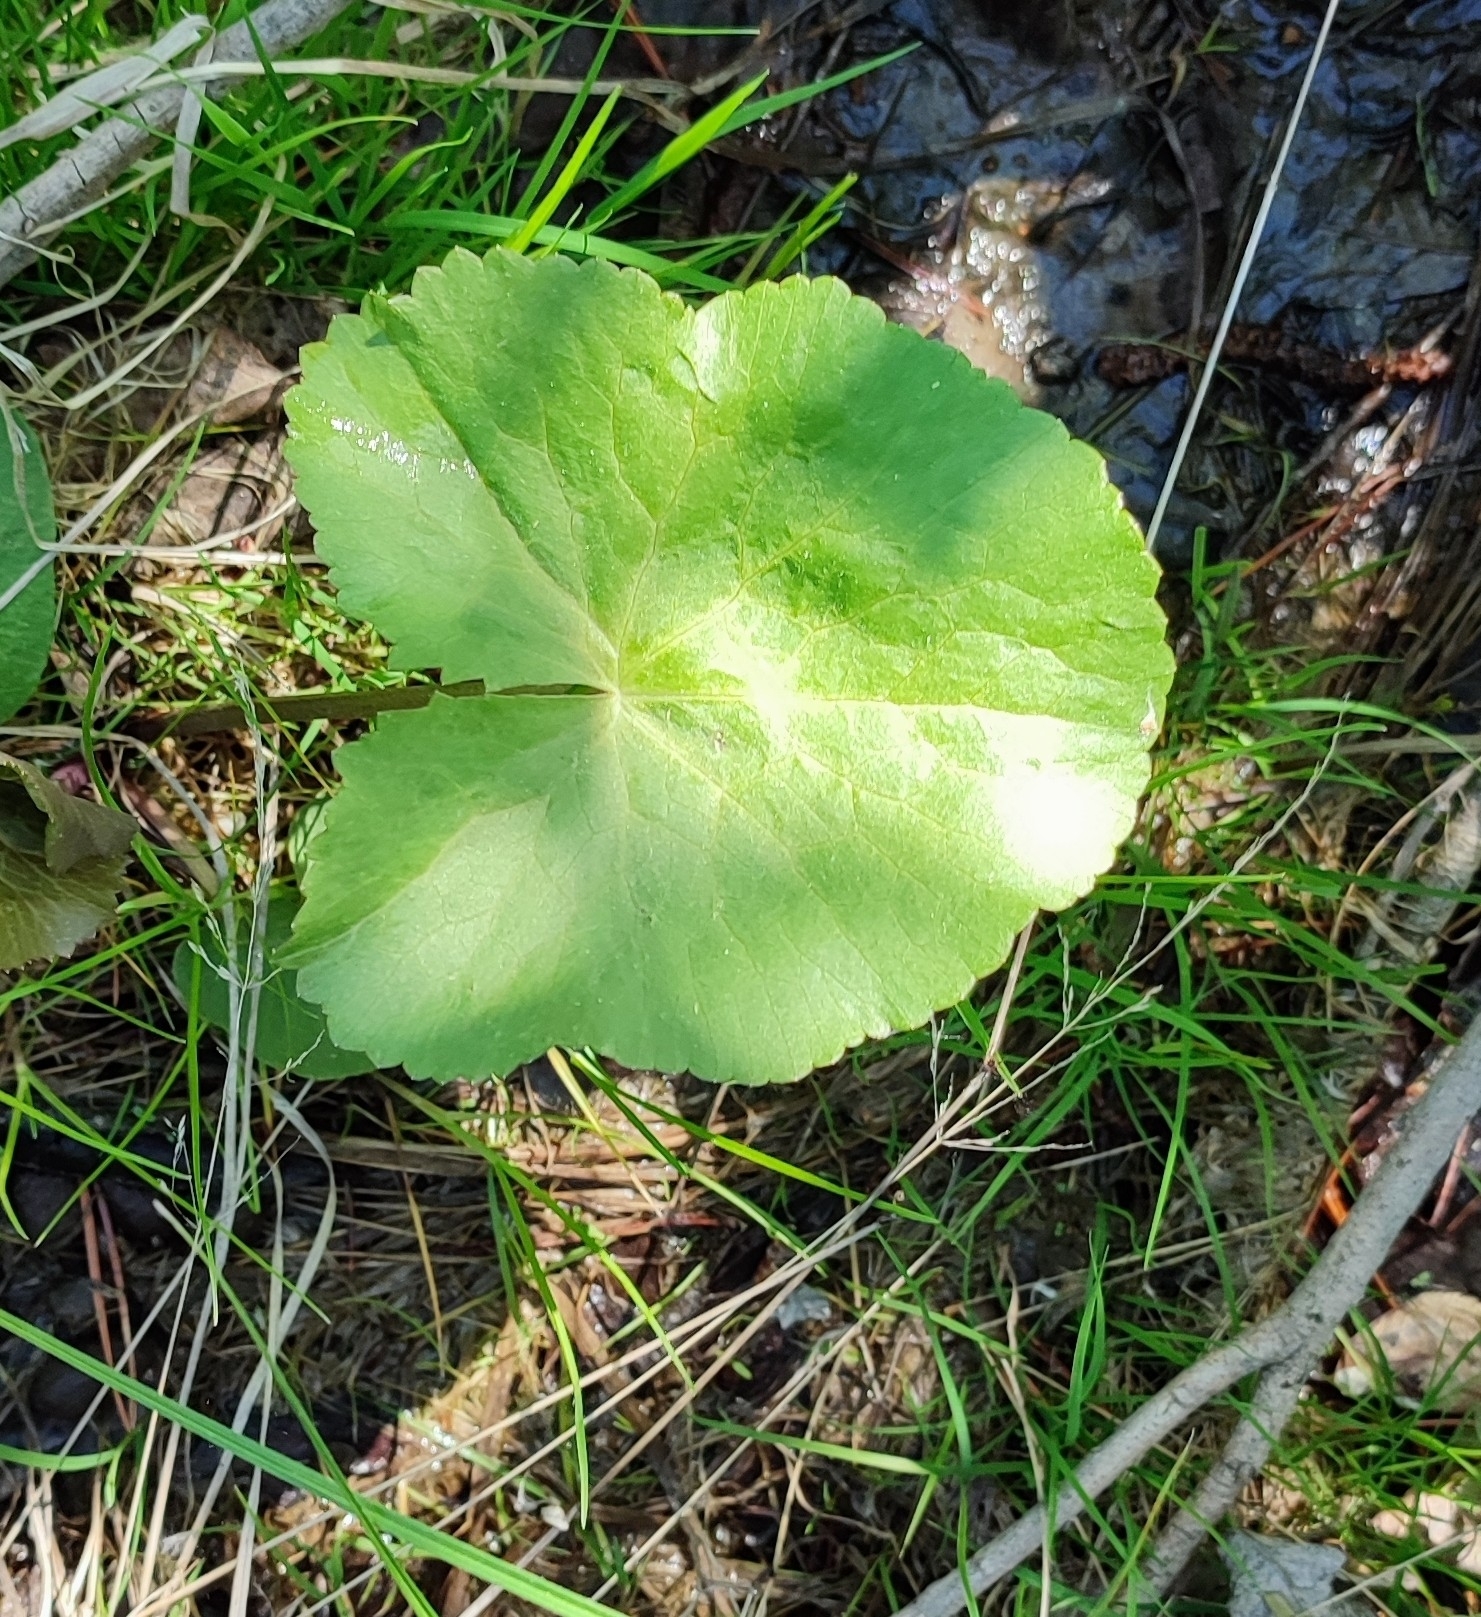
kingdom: Plantae
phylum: Tracheophyta
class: Magnoliopsida
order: Ranunculales
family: Ranunculaceae
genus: Caltha
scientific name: Caltha palustris
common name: Marsh marigold
